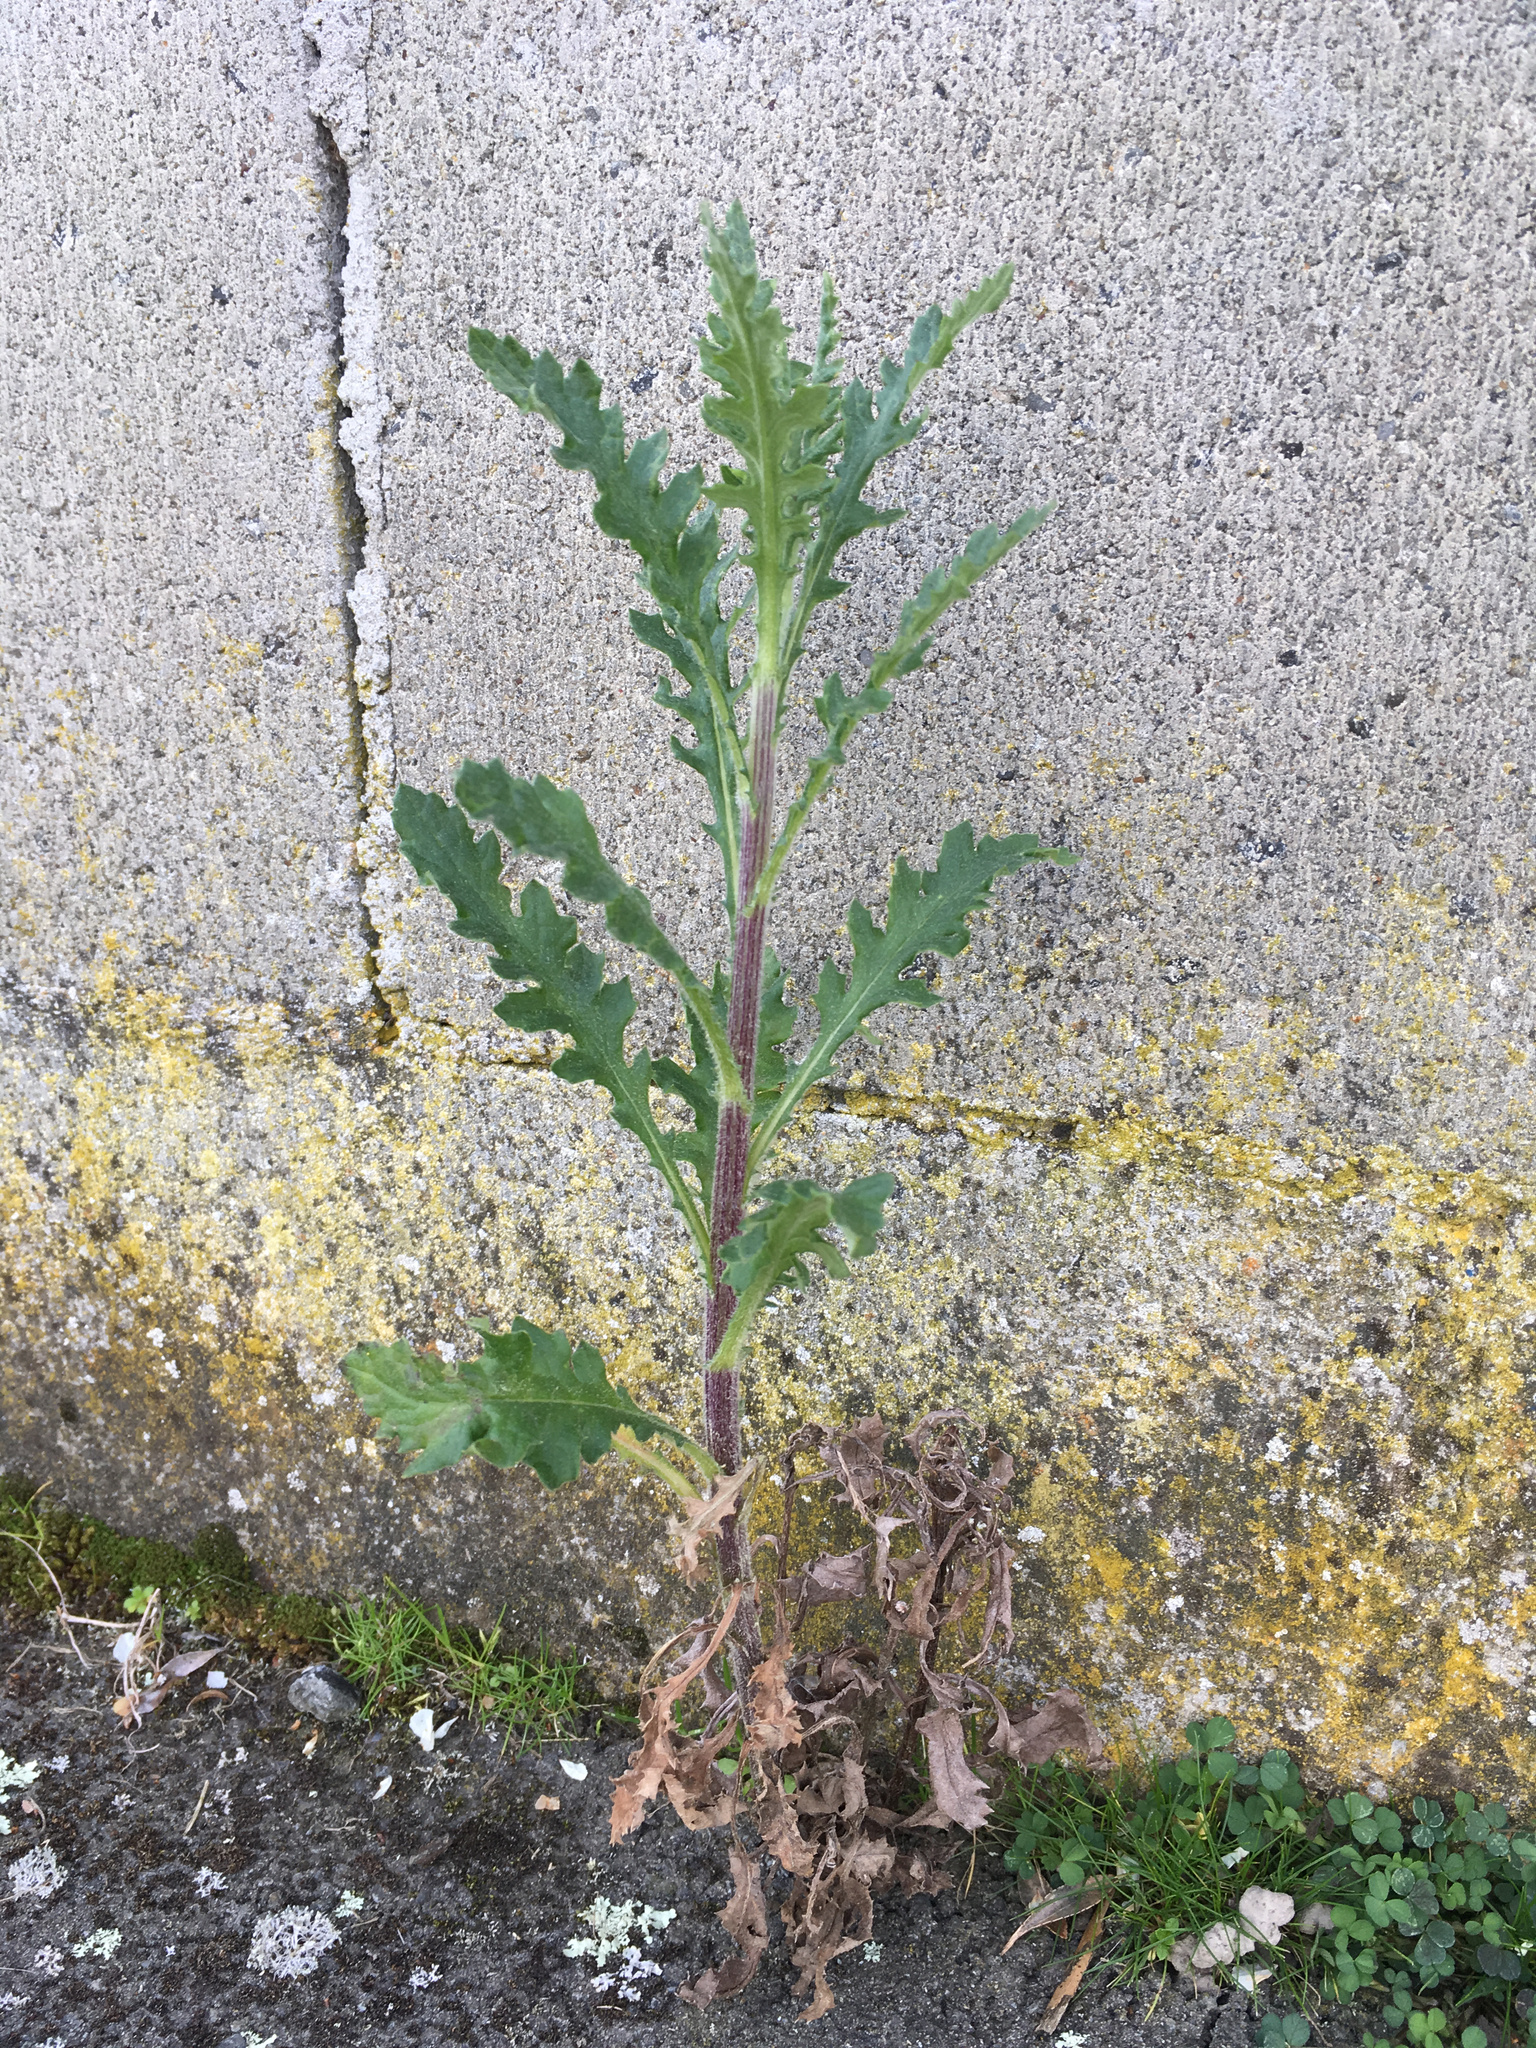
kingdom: Plantae
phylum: Tracheophyta
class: Magnoliopsida
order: Asterales
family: Asteraceae
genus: Senecio
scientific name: Senecio glomeratus
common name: Cutleaf burnweed
